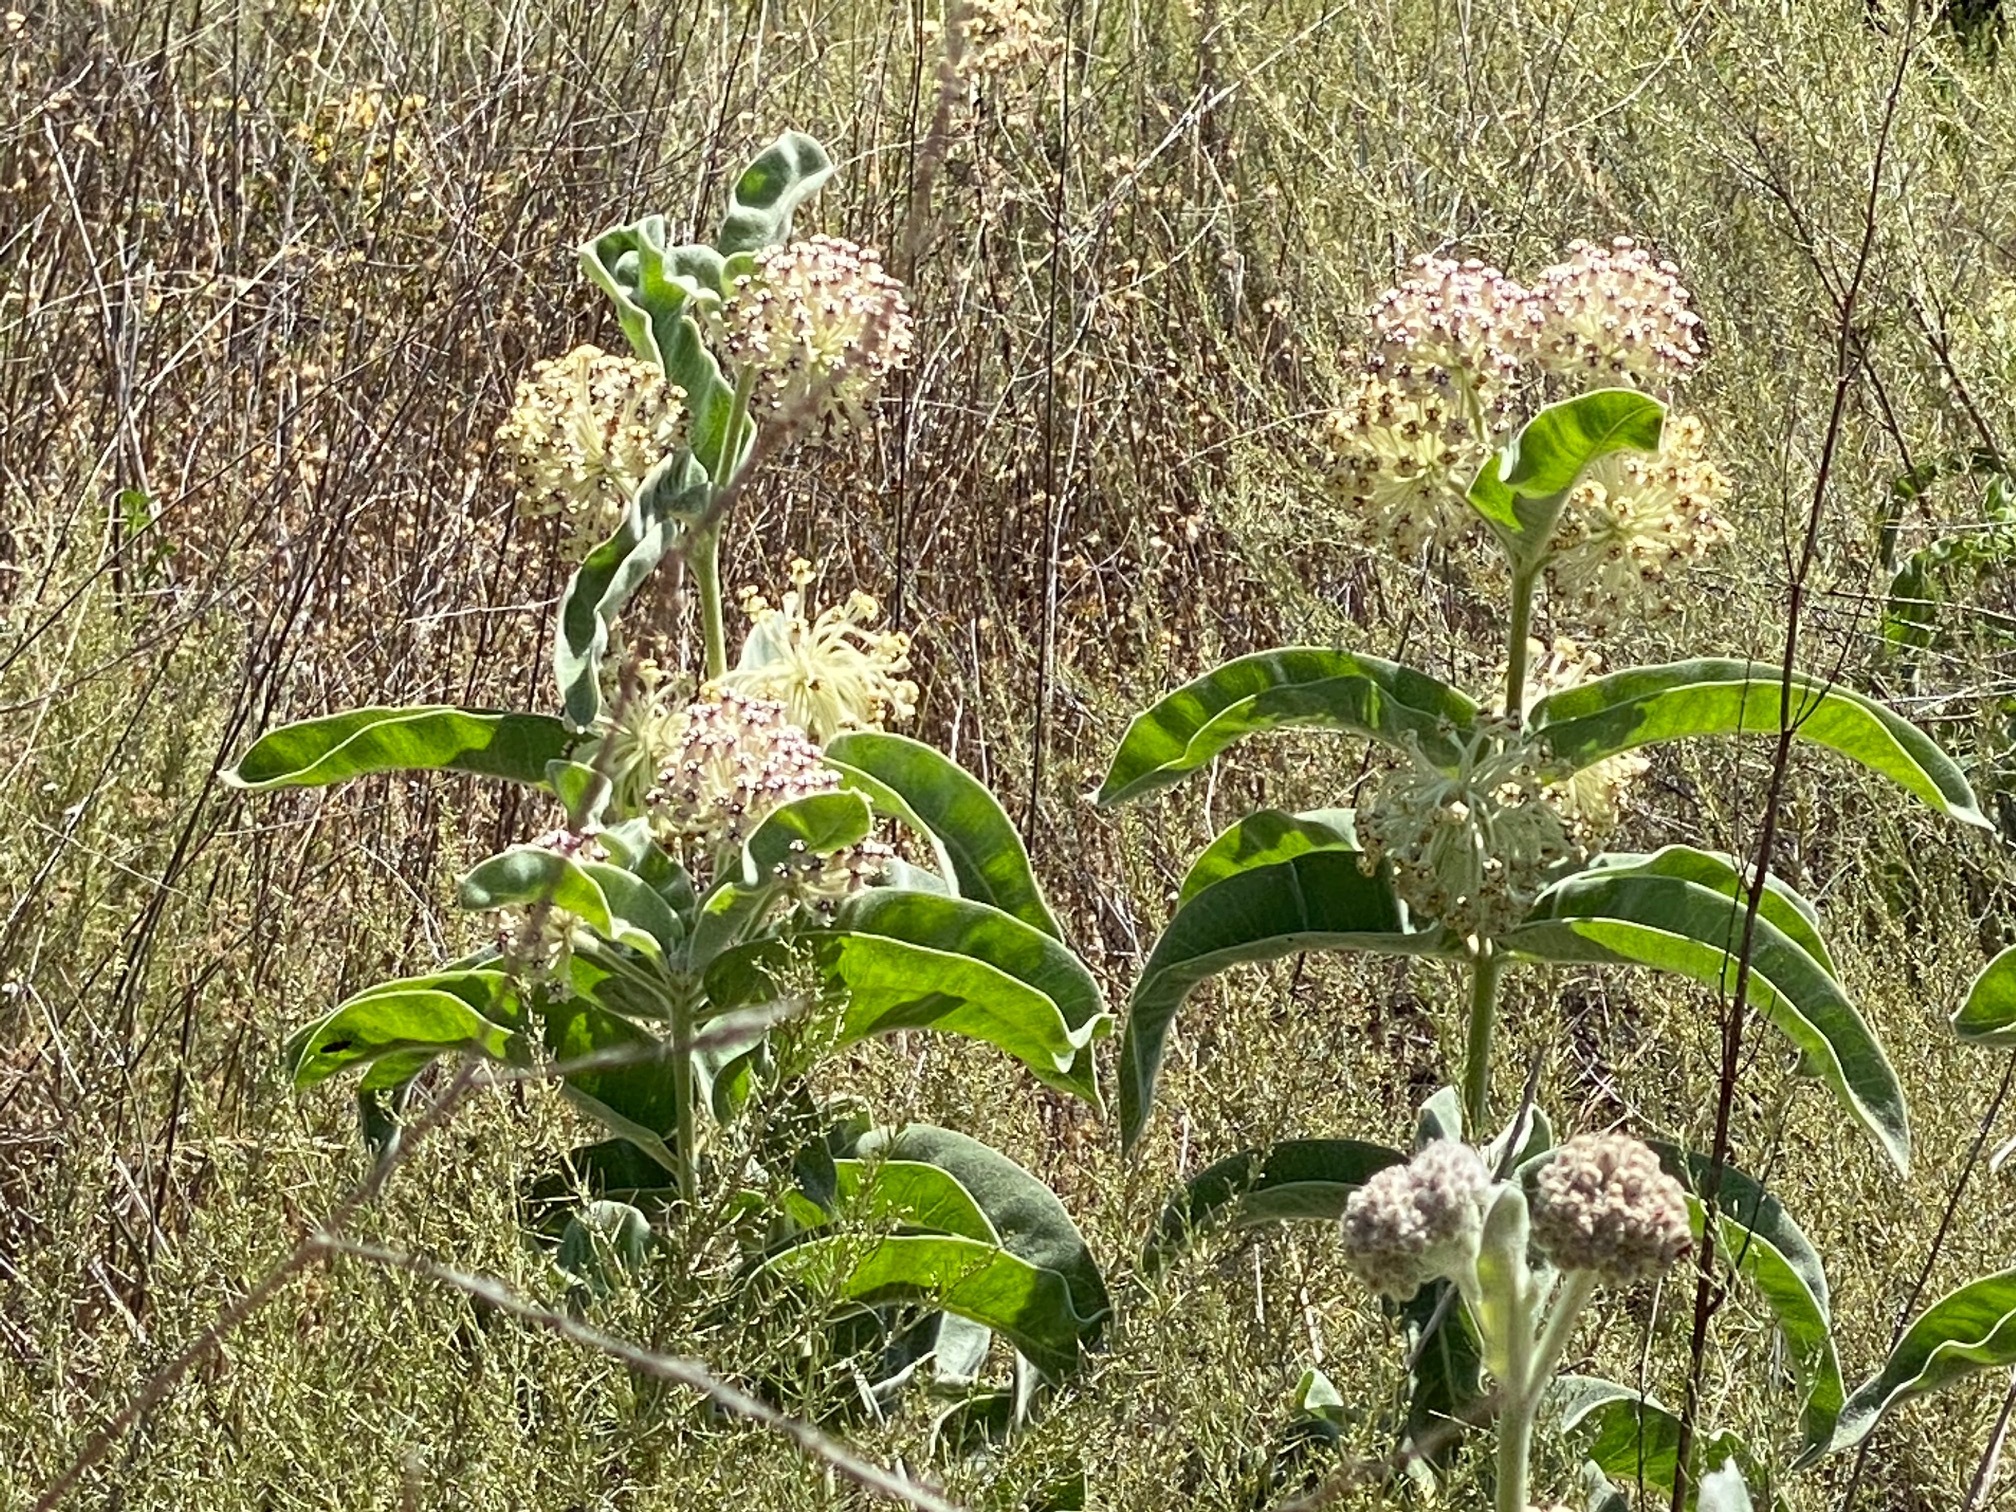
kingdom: Plantae
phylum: Tracheophyta
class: Magnoliopsida
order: Gentianales
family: Apocynaceae
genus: Asclepias
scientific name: Asclepias eriocarpa
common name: Indian milkweed
